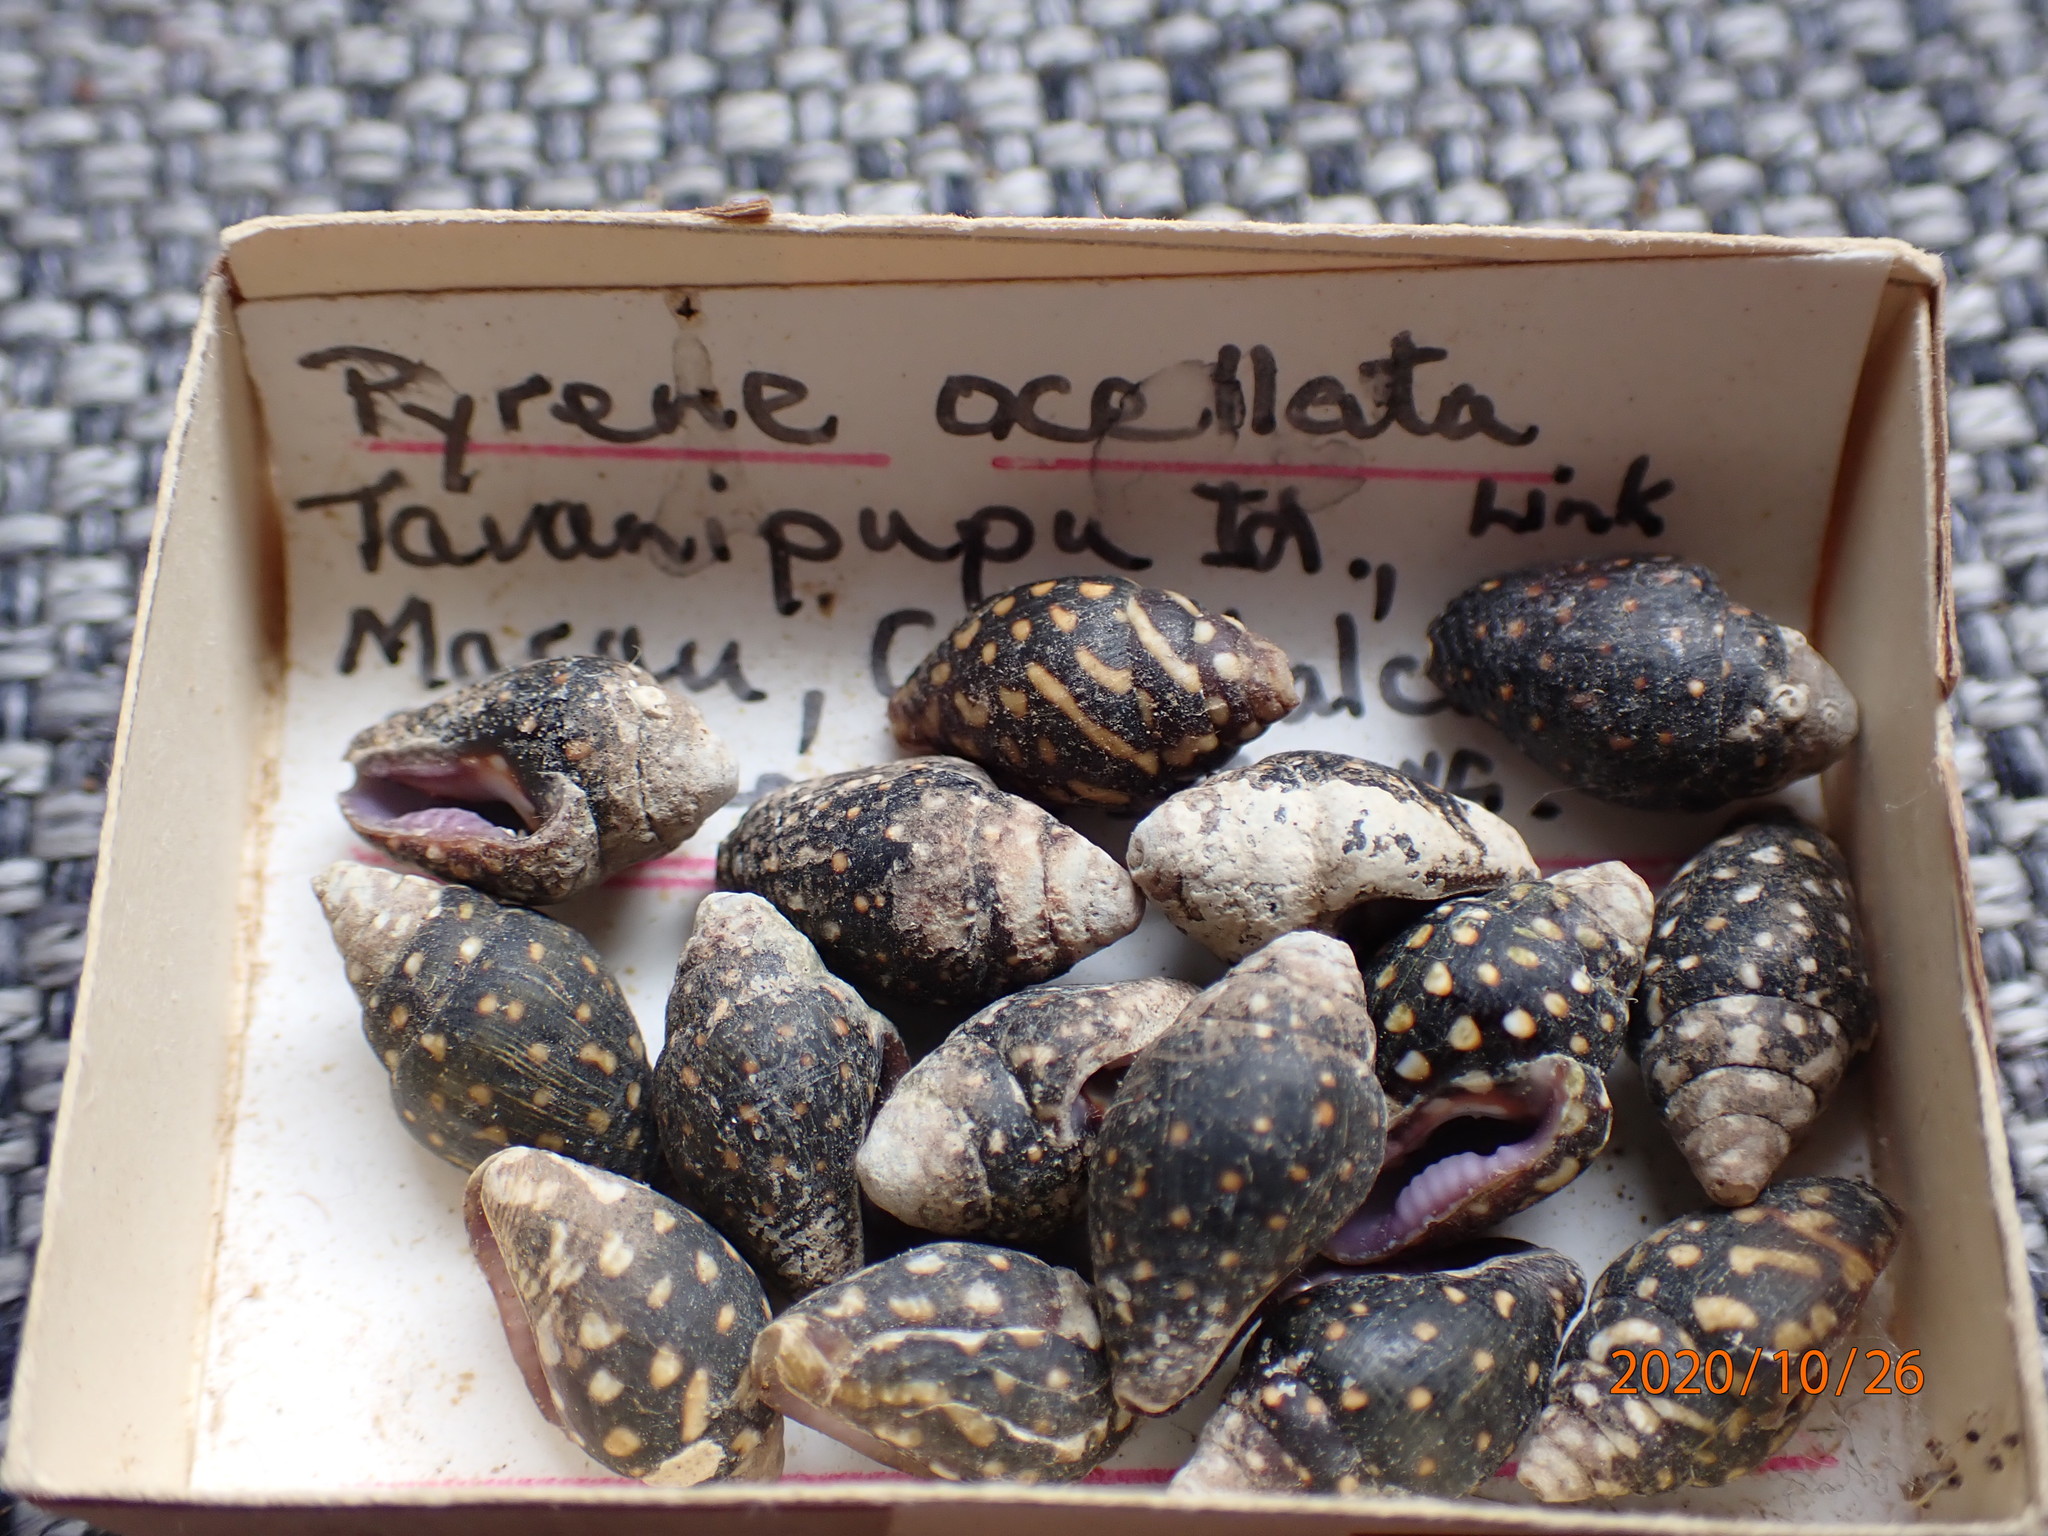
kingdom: Animalia
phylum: Mollusca
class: Gastropoda
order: Neogastropoda
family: Columbellidae
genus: Pictocolumbella
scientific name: Pictocolumbella ocellata
